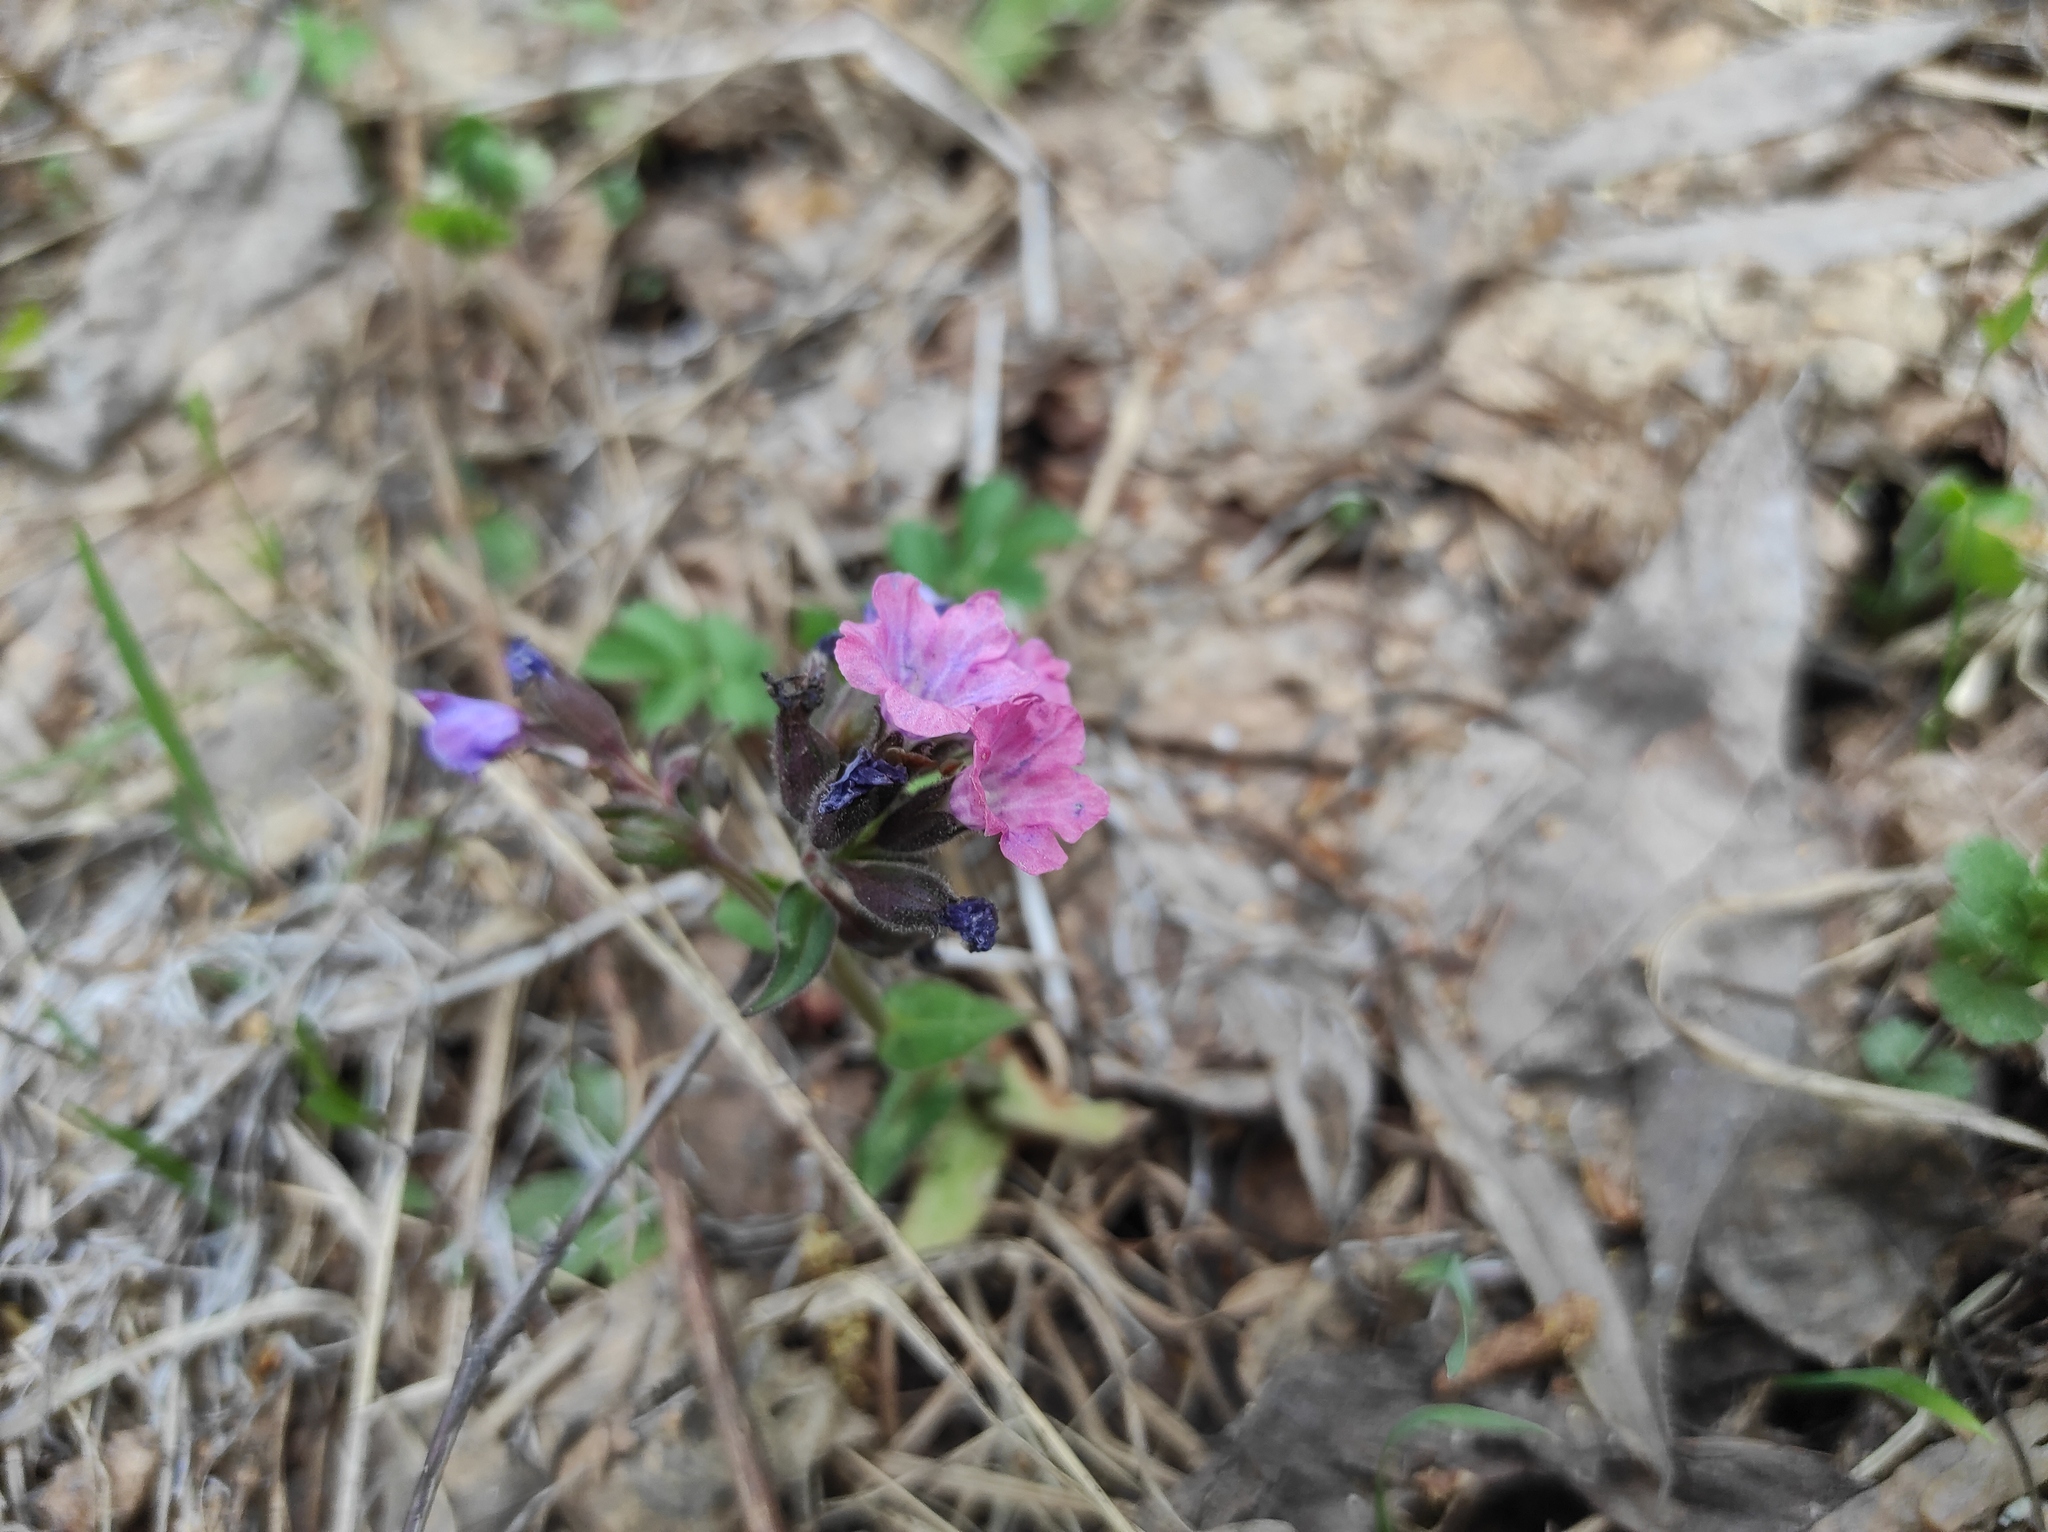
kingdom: Plantae
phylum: Tracheophyta
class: Magnoliopsida
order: Boraginales
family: Boraginaceae
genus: Pulmonaria
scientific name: Pulmonaria mollis
